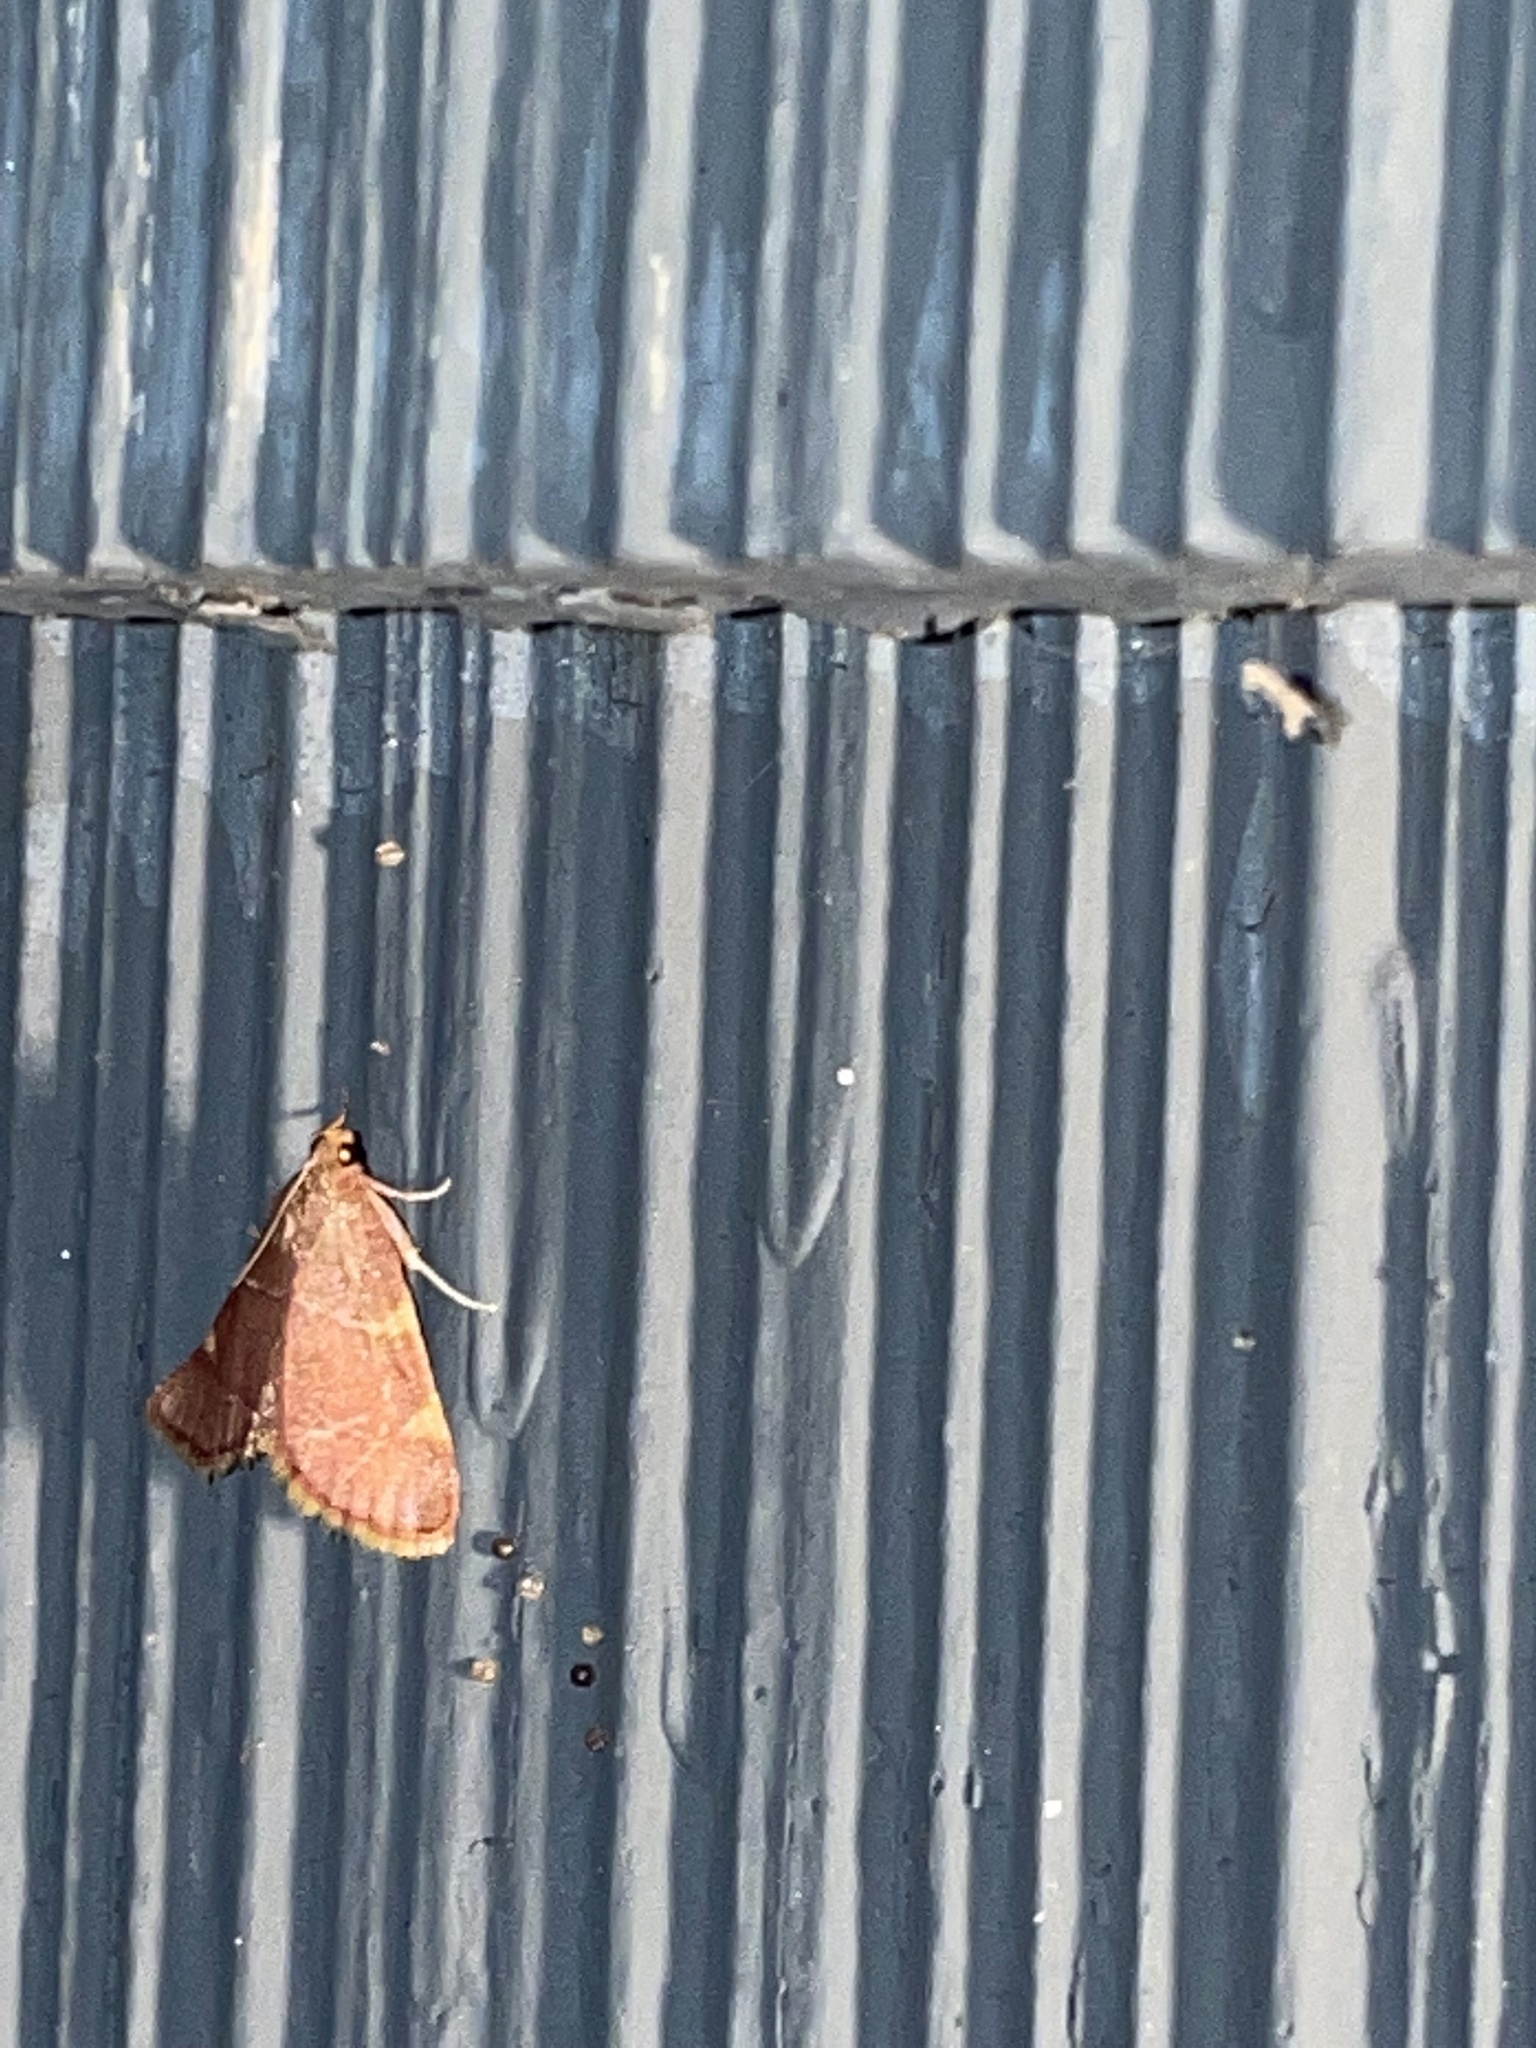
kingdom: Animalia
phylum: Arthropoda
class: Insecta
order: Lepidoptera
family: Pyralidae
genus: Hypsopygia
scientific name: Hypsopygia olinalis
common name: Yellow-fringed dolichomia moth
